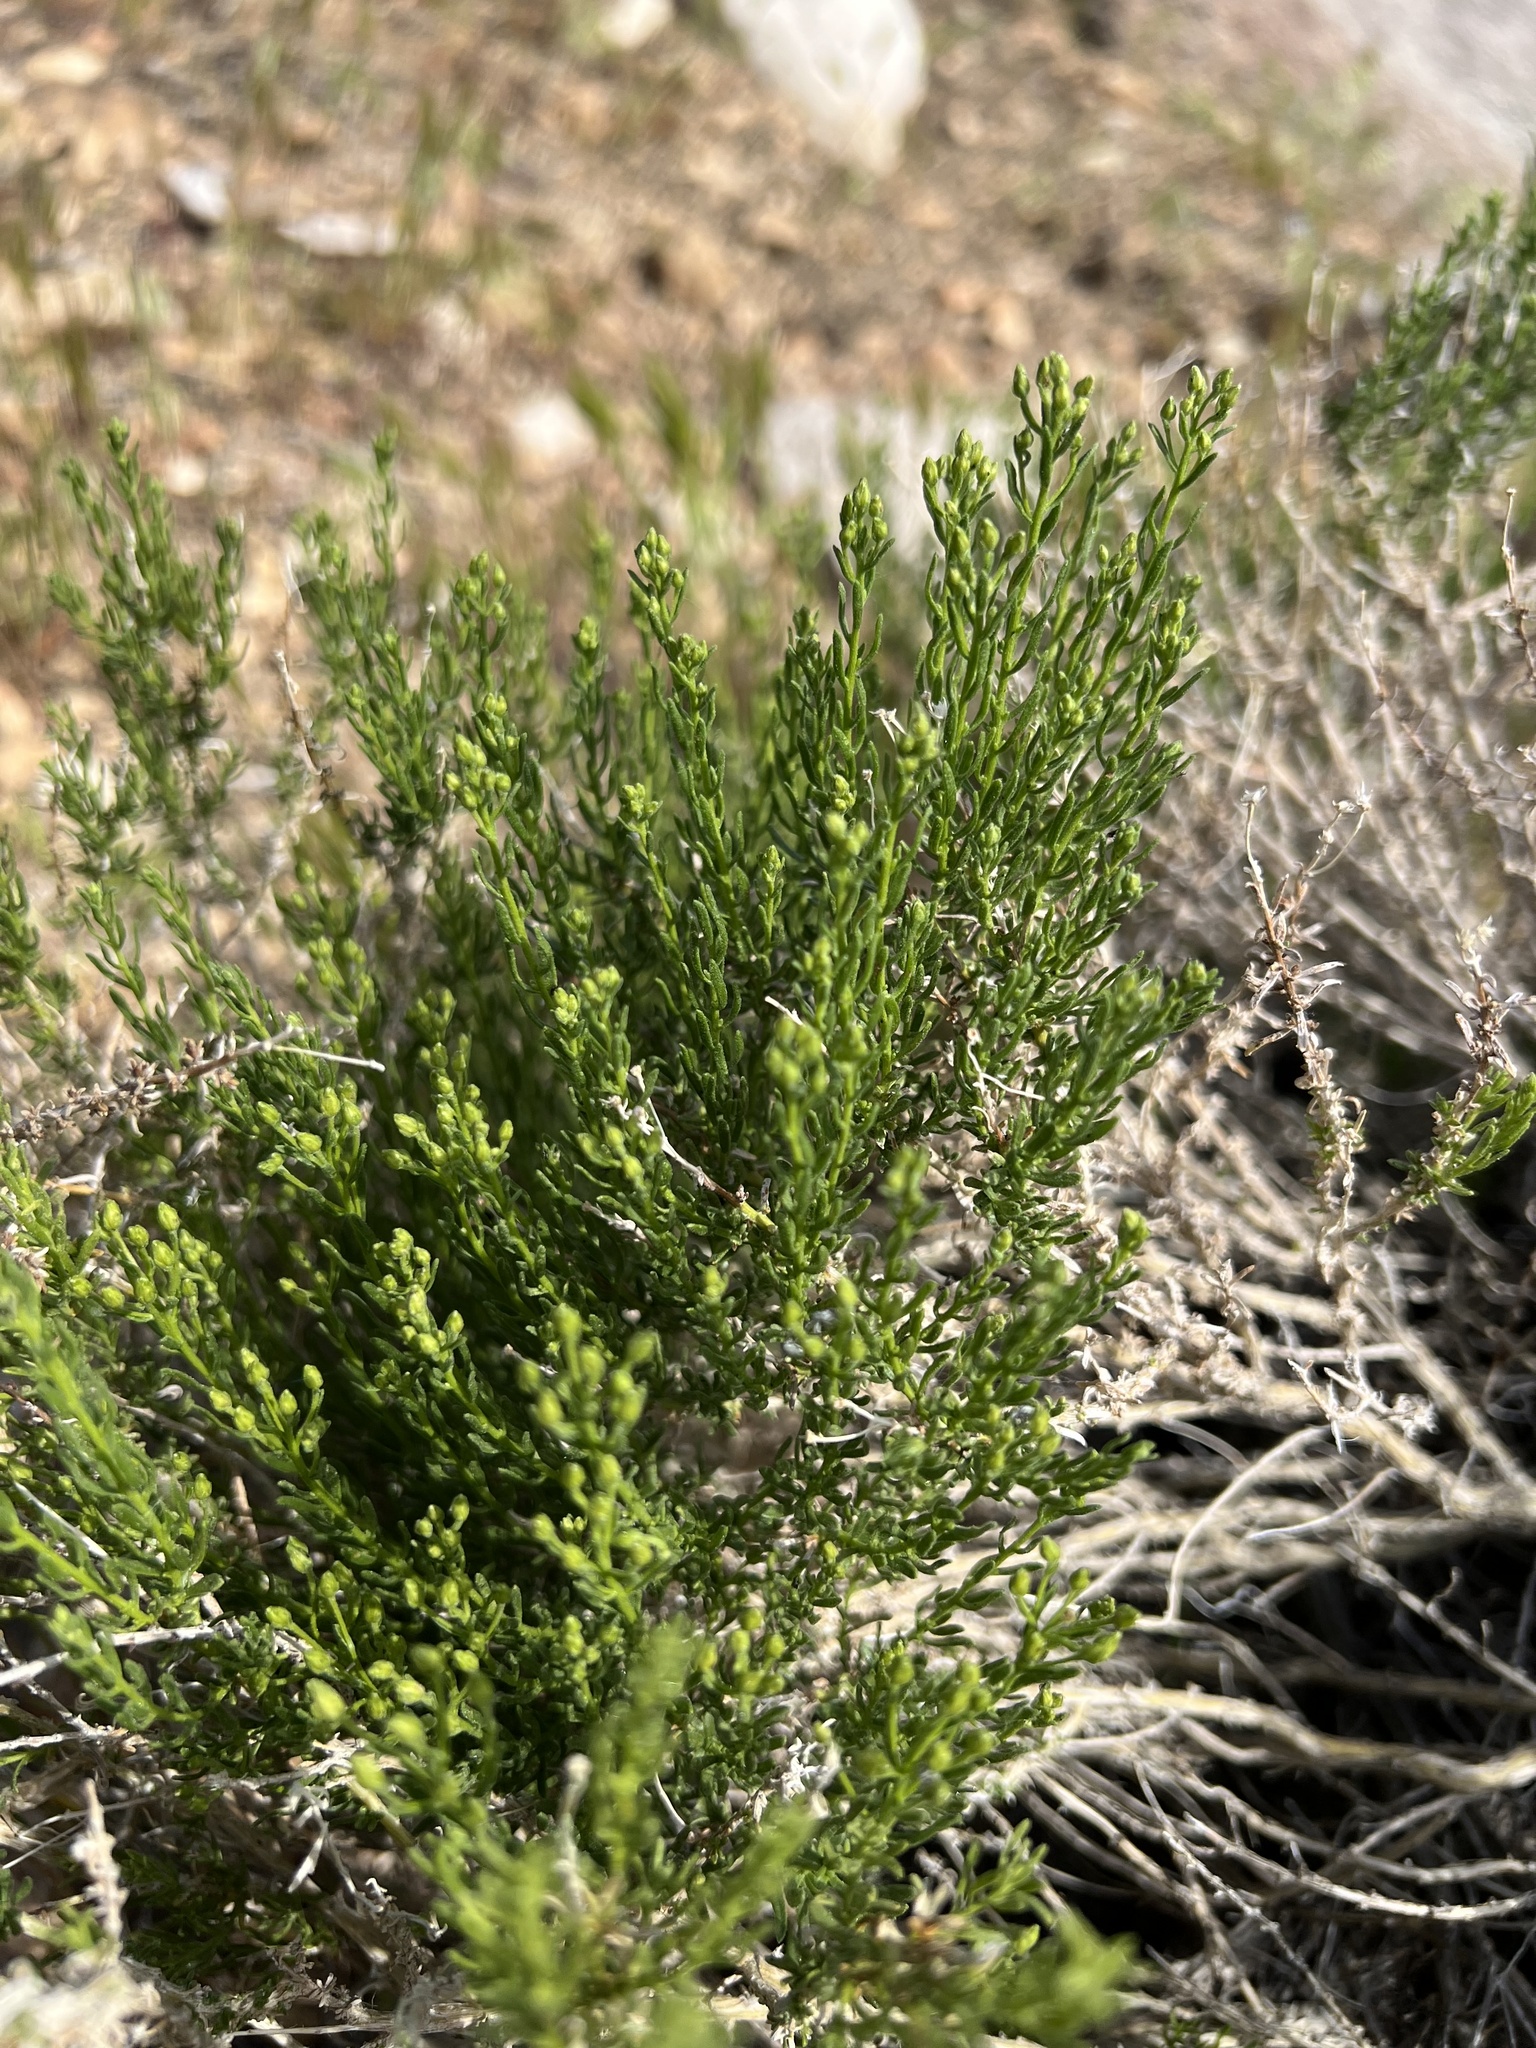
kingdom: Plantae
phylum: Tracheophyta
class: Magnoliopsida
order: Asterales
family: Asteraceae
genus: Ericameria
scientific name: Ericameria cooperi
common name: Cooper's goldenbush
